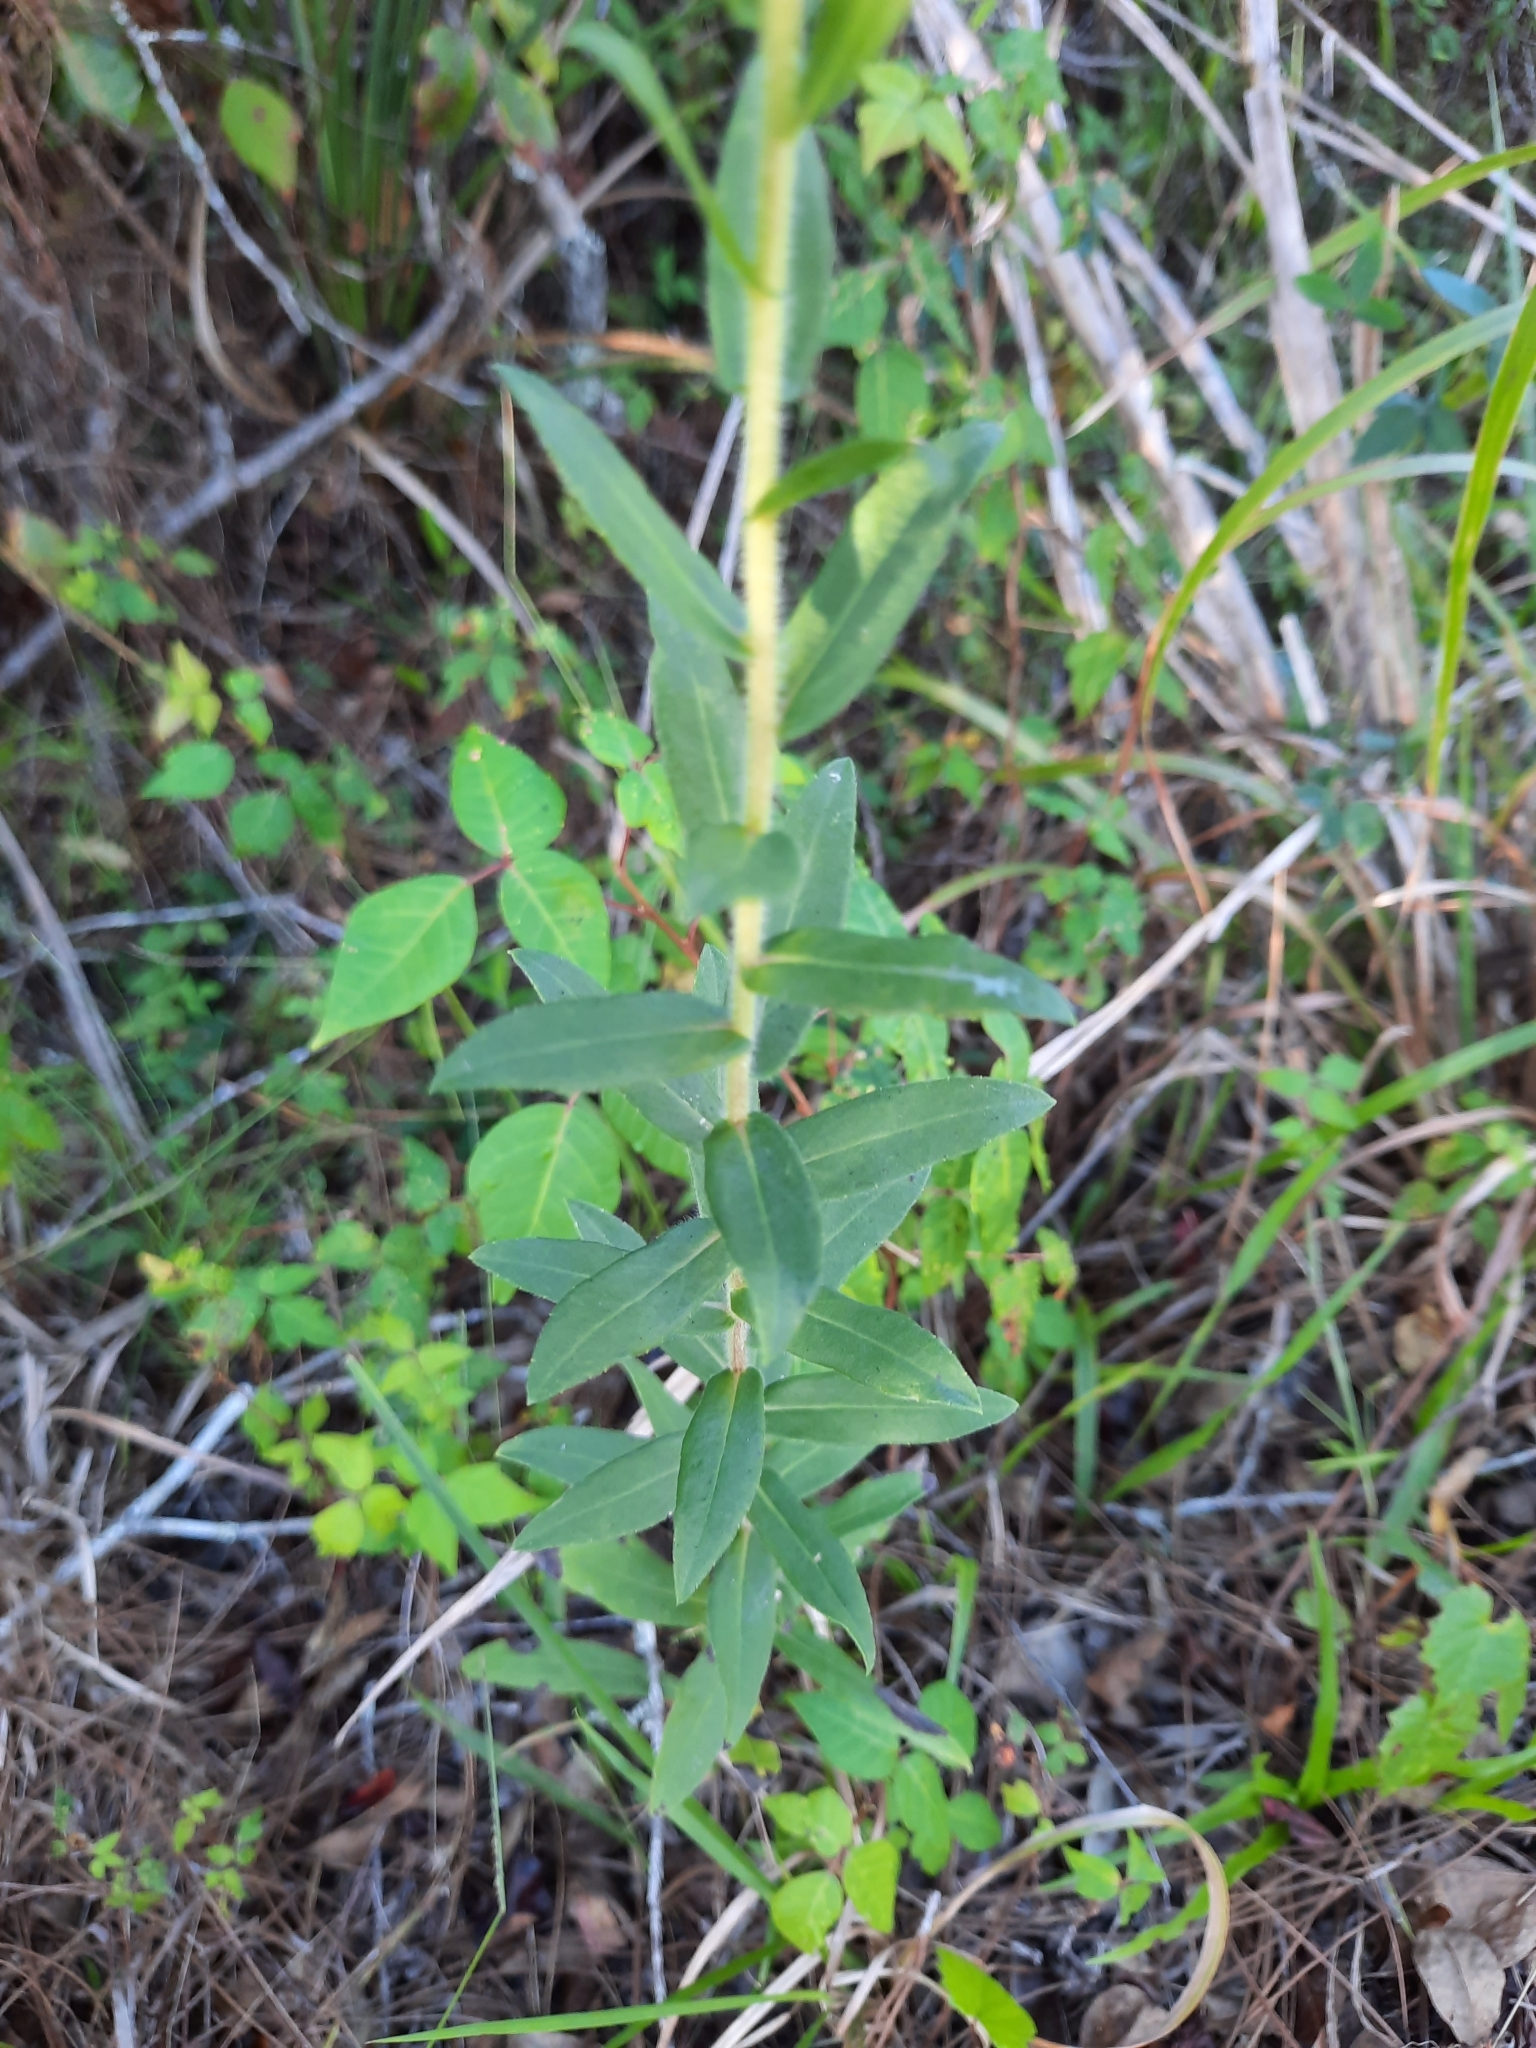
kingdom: Plantae
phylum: Tracheophyta
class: Magnoliopsida
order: Asterales
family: Asteraceae
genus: Solidago
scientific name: Solidago fistulosa
